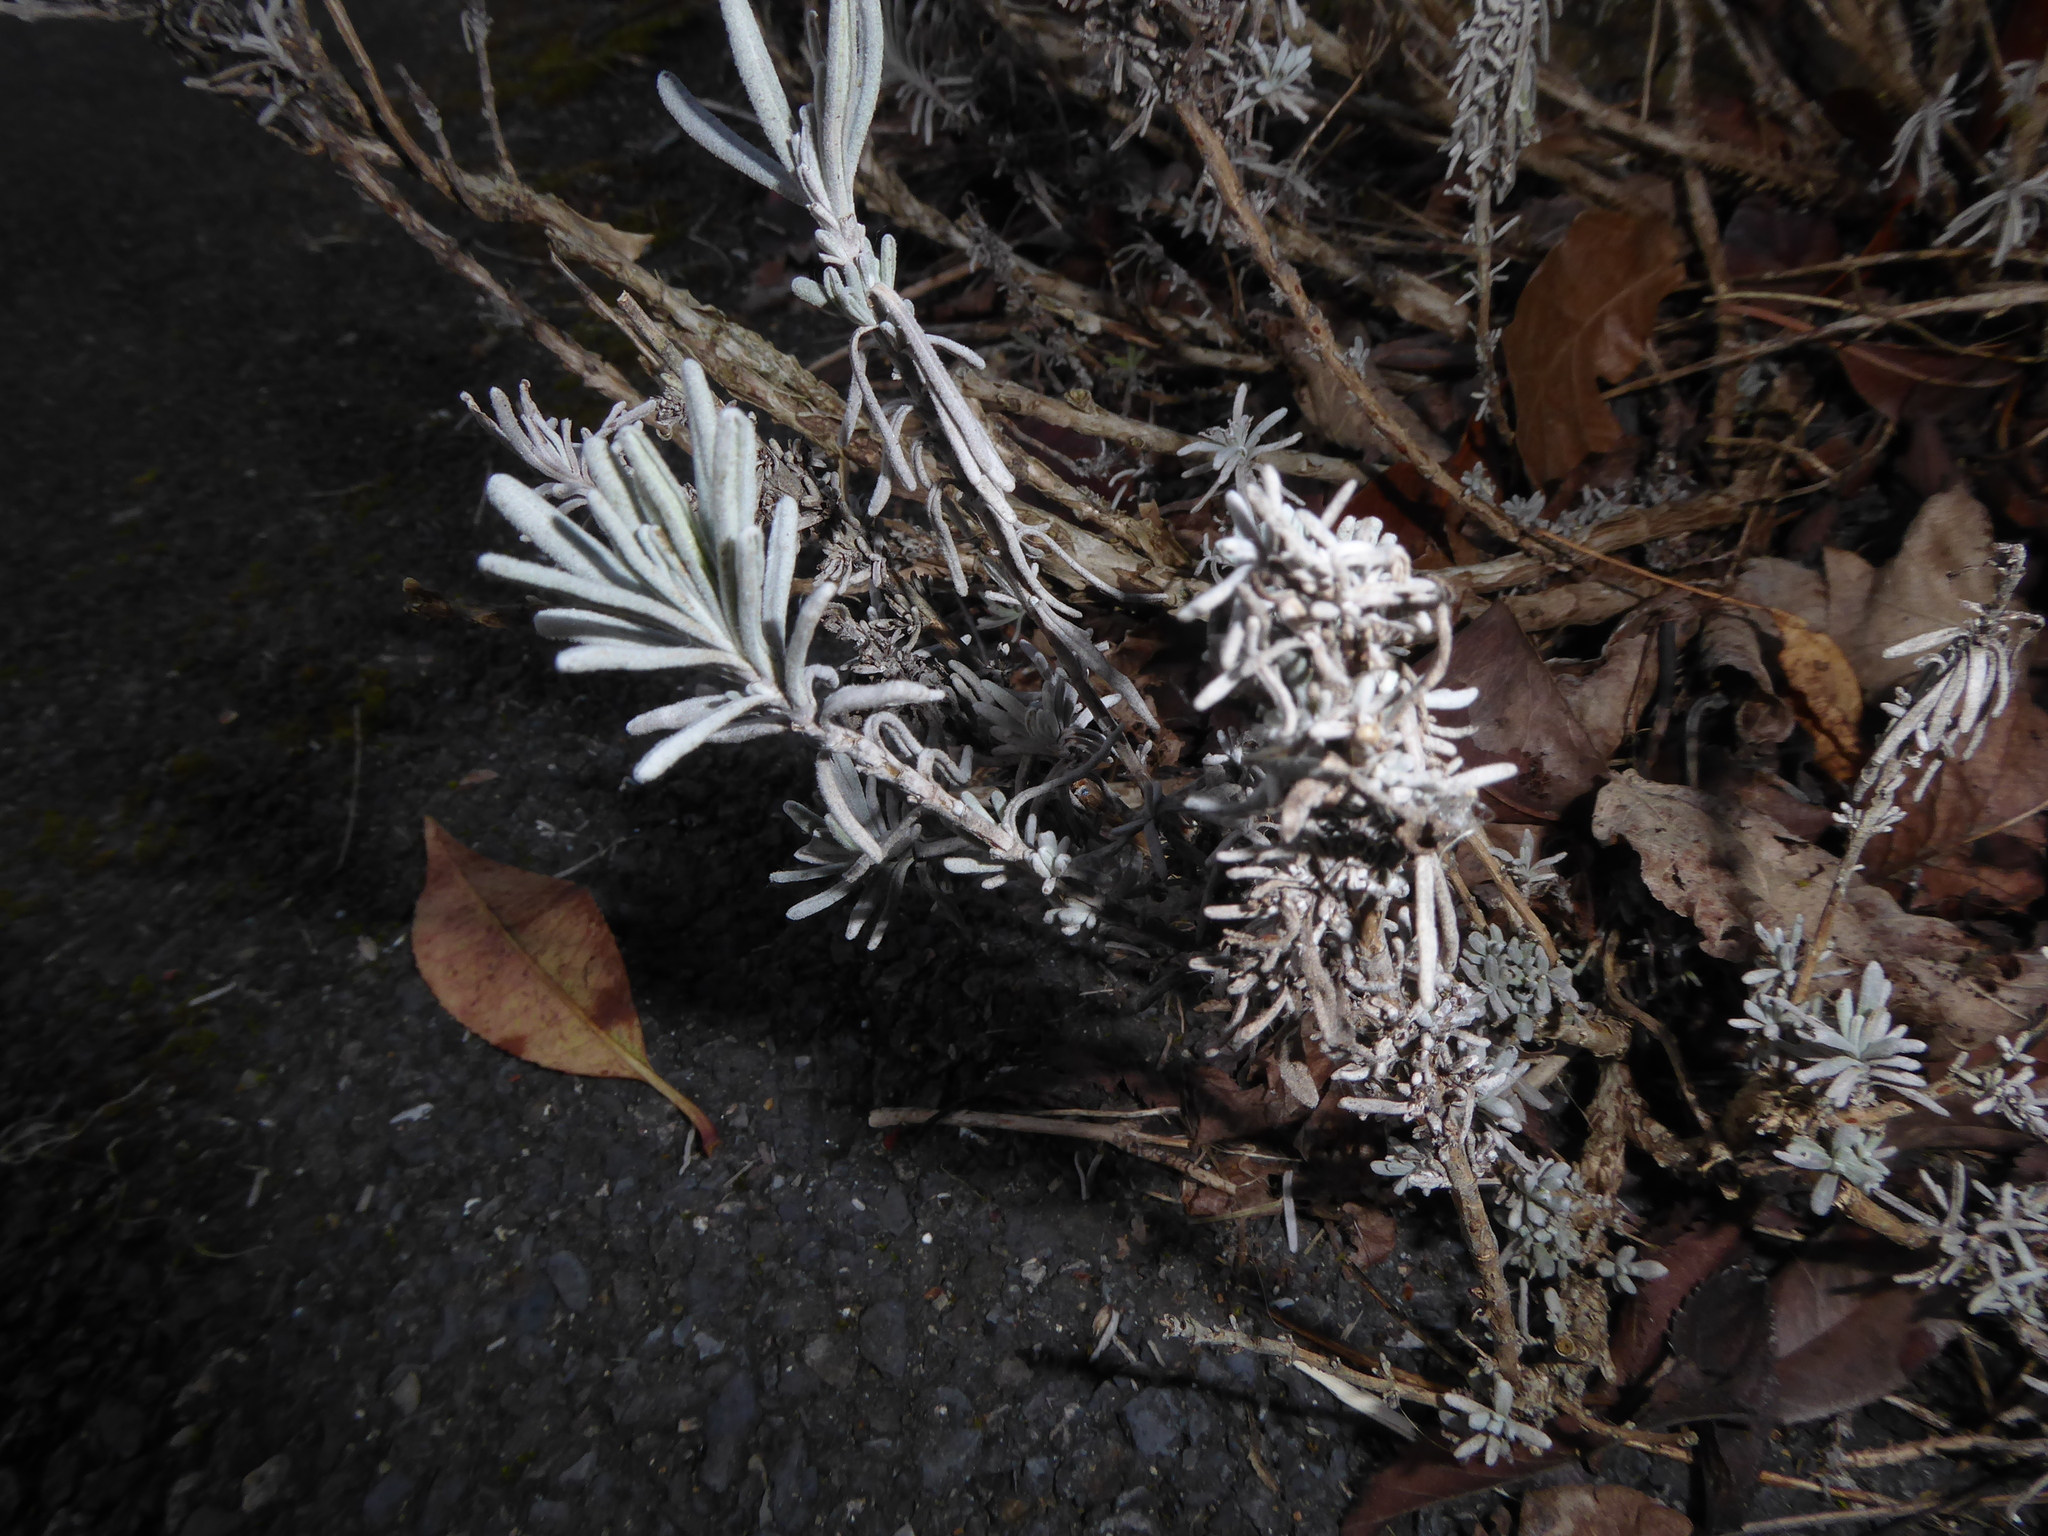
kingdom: Plantae
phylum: Tracheophyta
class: Magnoliopsida
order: Lamiales
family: Lamiaceae
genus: Lavandula
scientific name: Lavandula angustifolia
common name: Garden lavender
